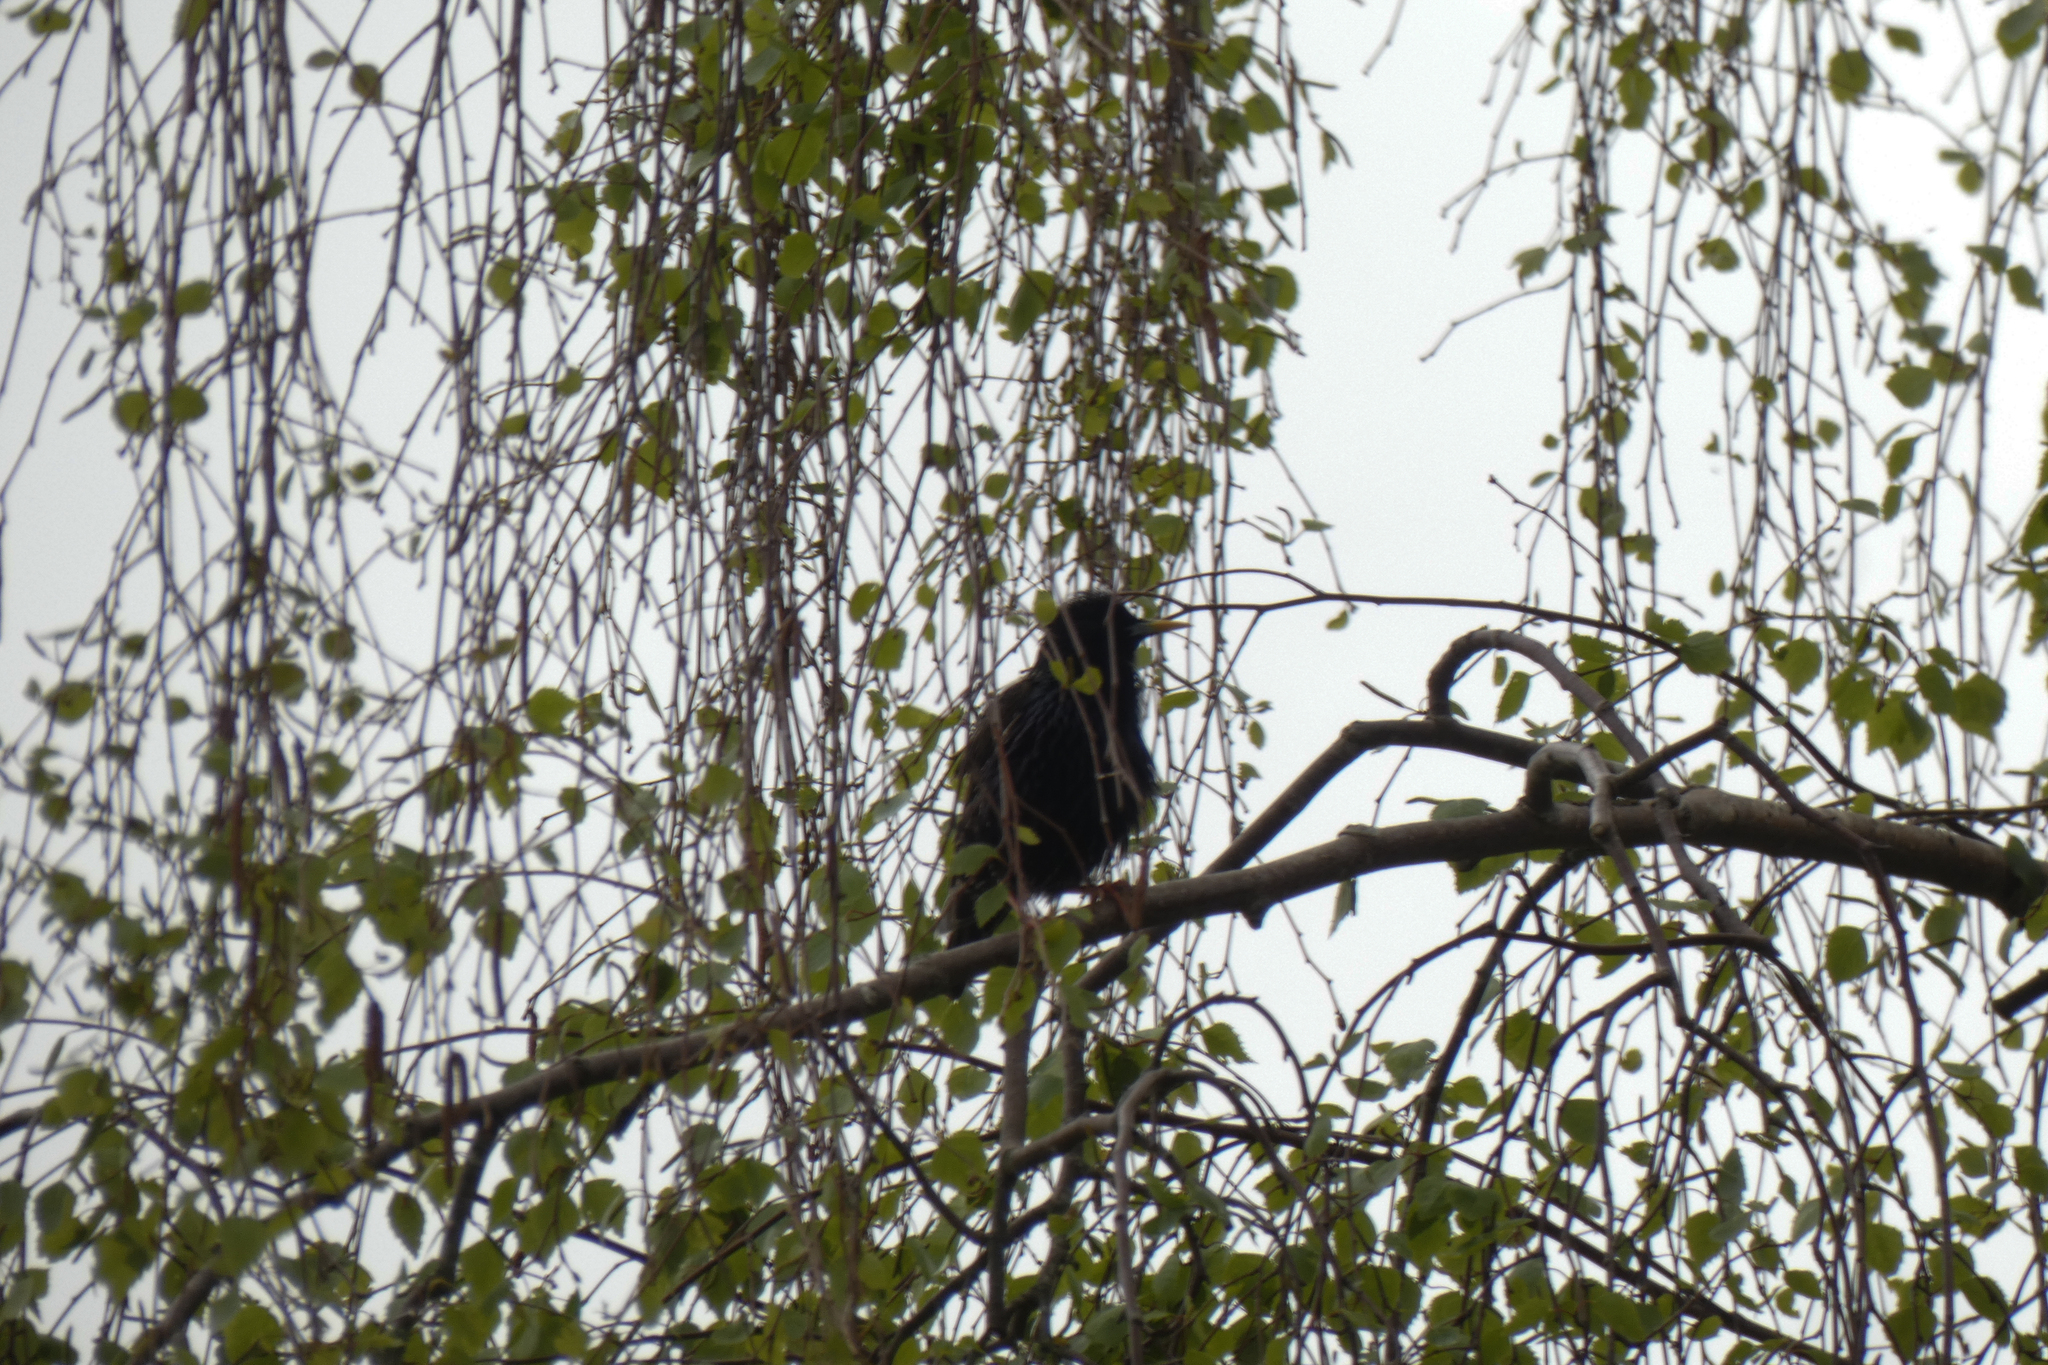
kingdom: Animalia
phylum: Chordata
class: Aves
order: Passeriformes
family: Sturnidae
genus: Sturnus
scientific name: Sturnus vulgaris
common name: Common starling
